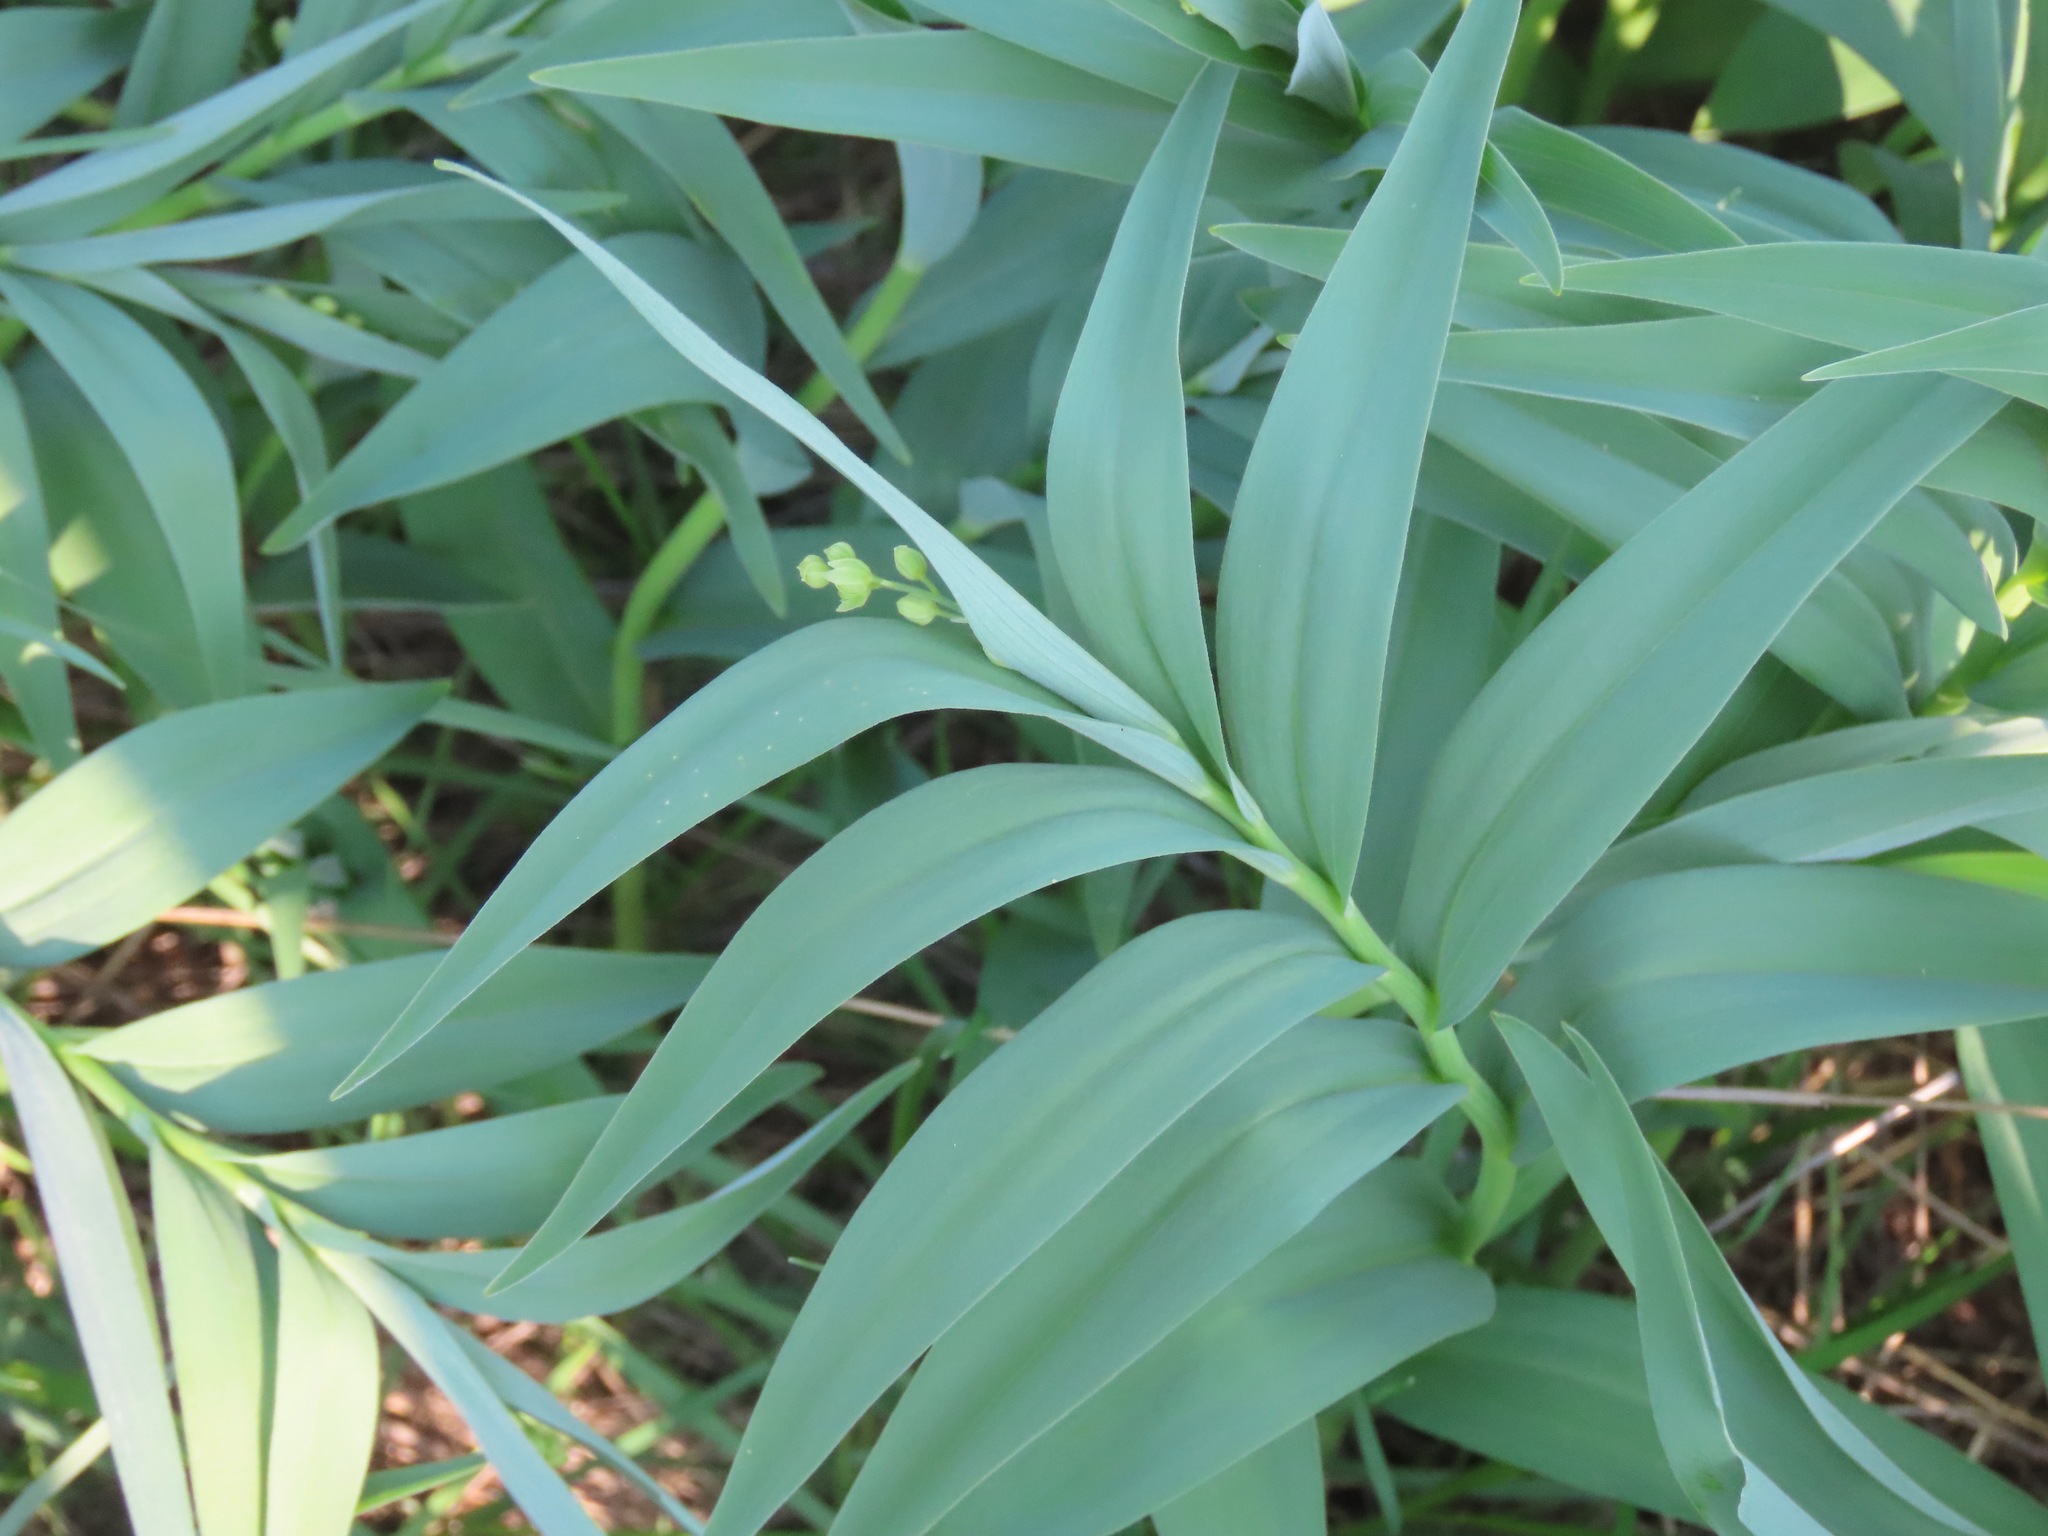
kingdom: Plantae
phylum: Tracheophyta
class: Liliopsida
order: Asparagales
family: Asparagaceae
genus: Maianthemum
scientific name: Maianthemum stellatum
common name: Little false solomon's seal
